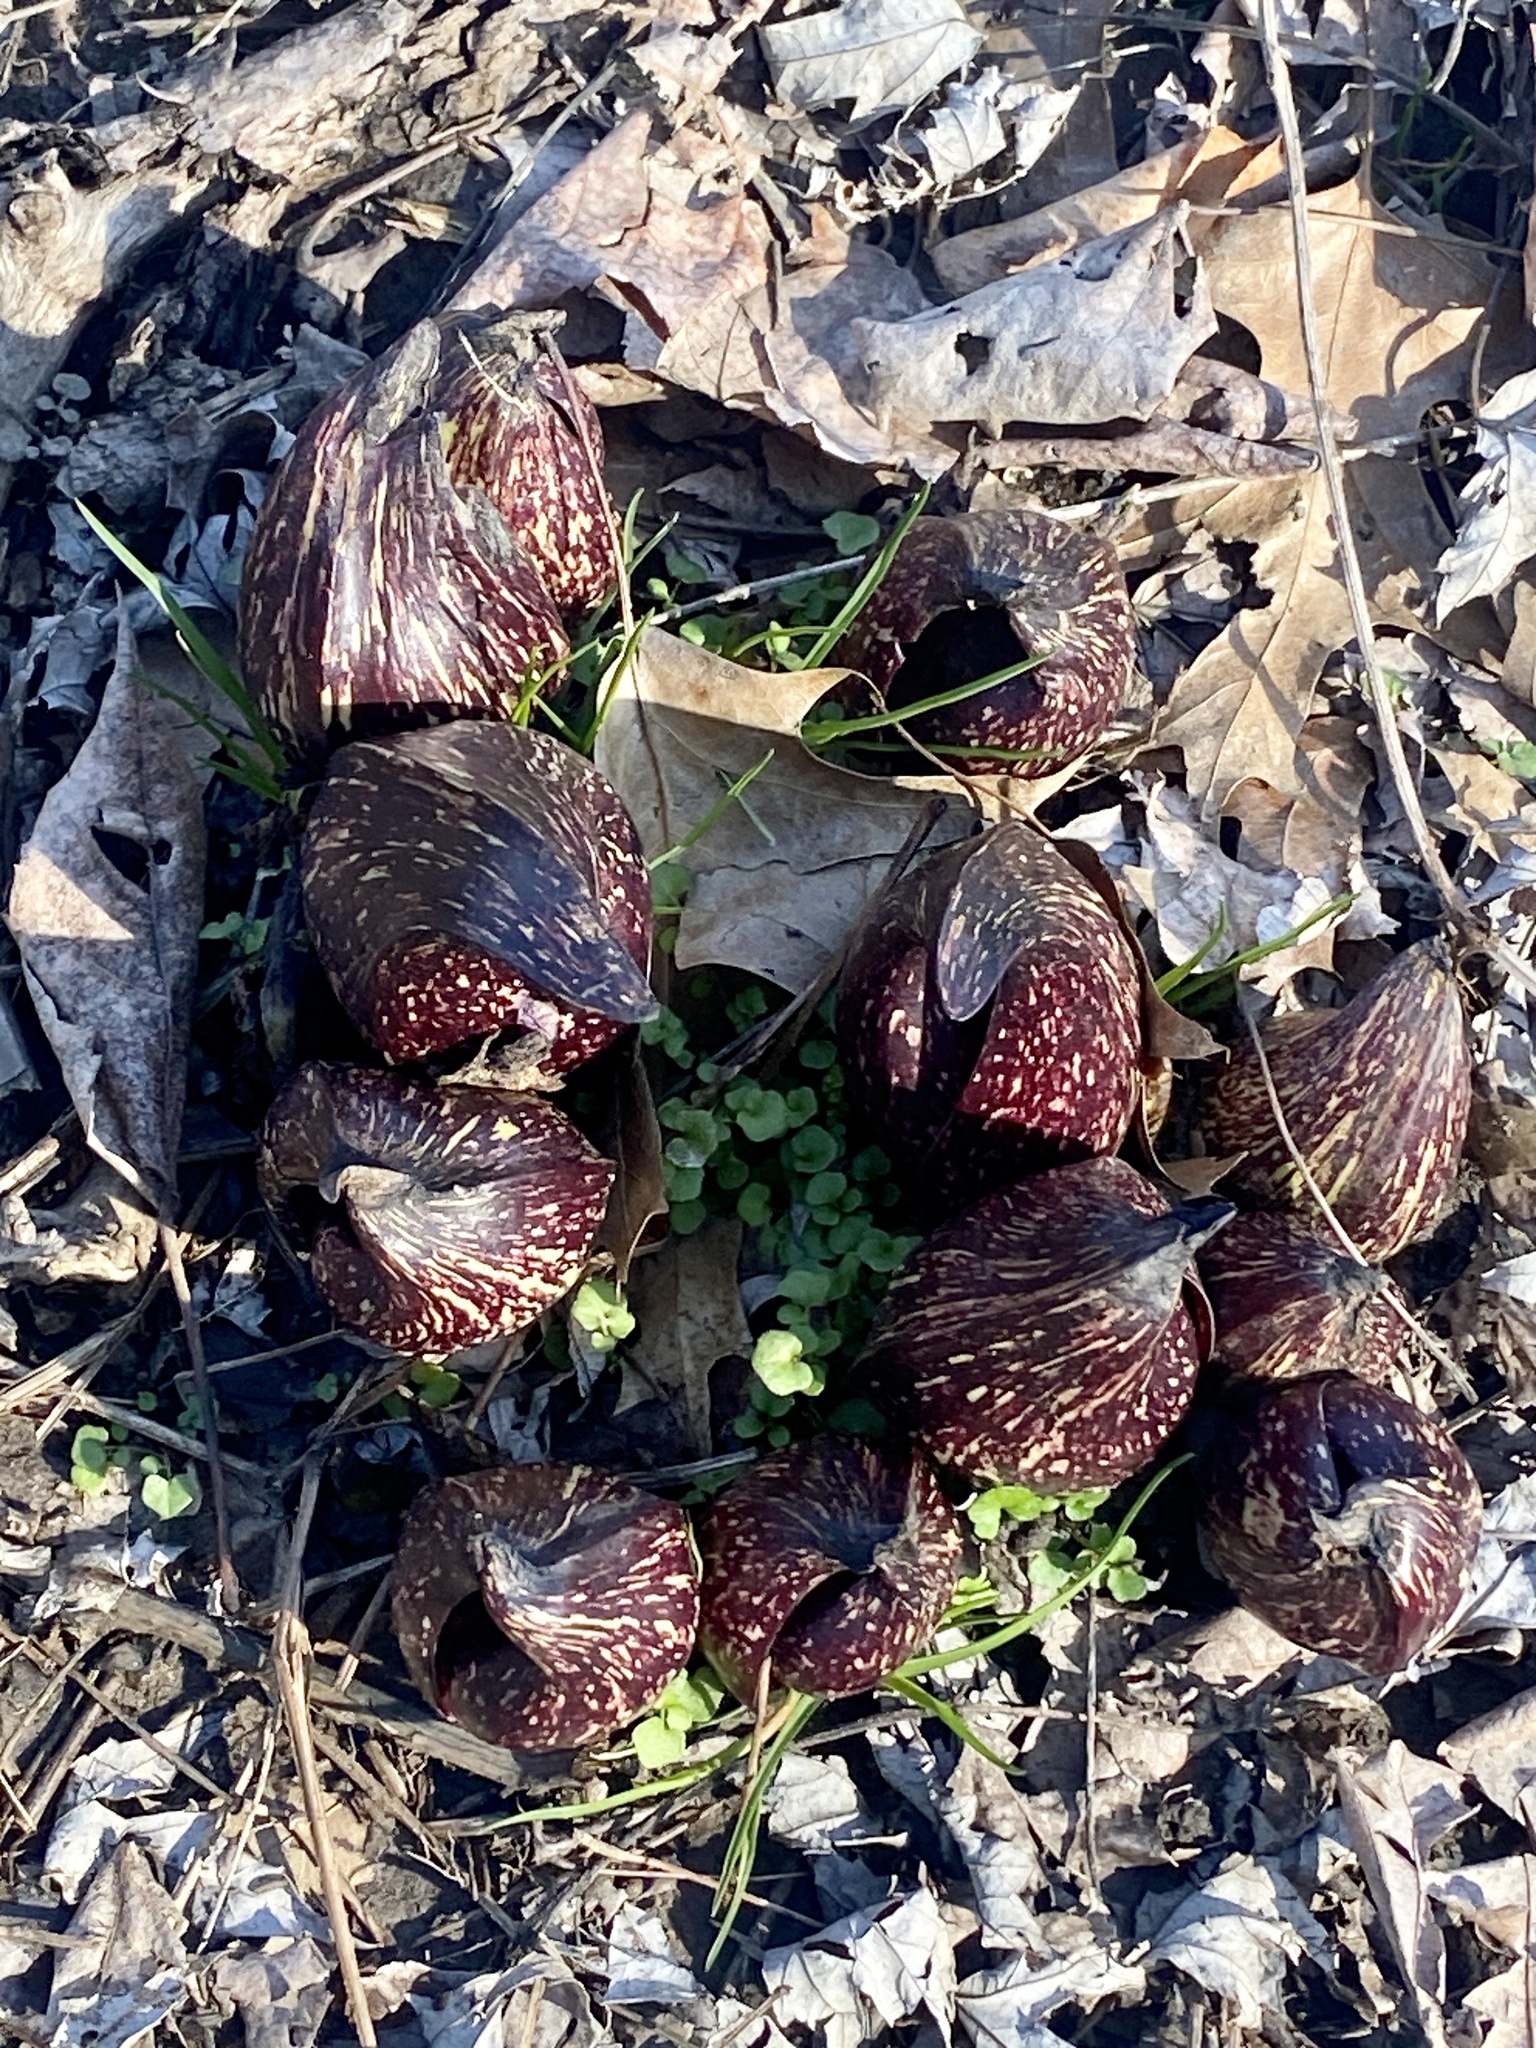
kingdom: Plantae
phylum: Tracheophyta
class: Liliopsida
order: Alismatales
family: Araceae
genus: Symplocarpus
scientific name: Symplocarpus foetidus
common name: Eastern skunk cabbage
